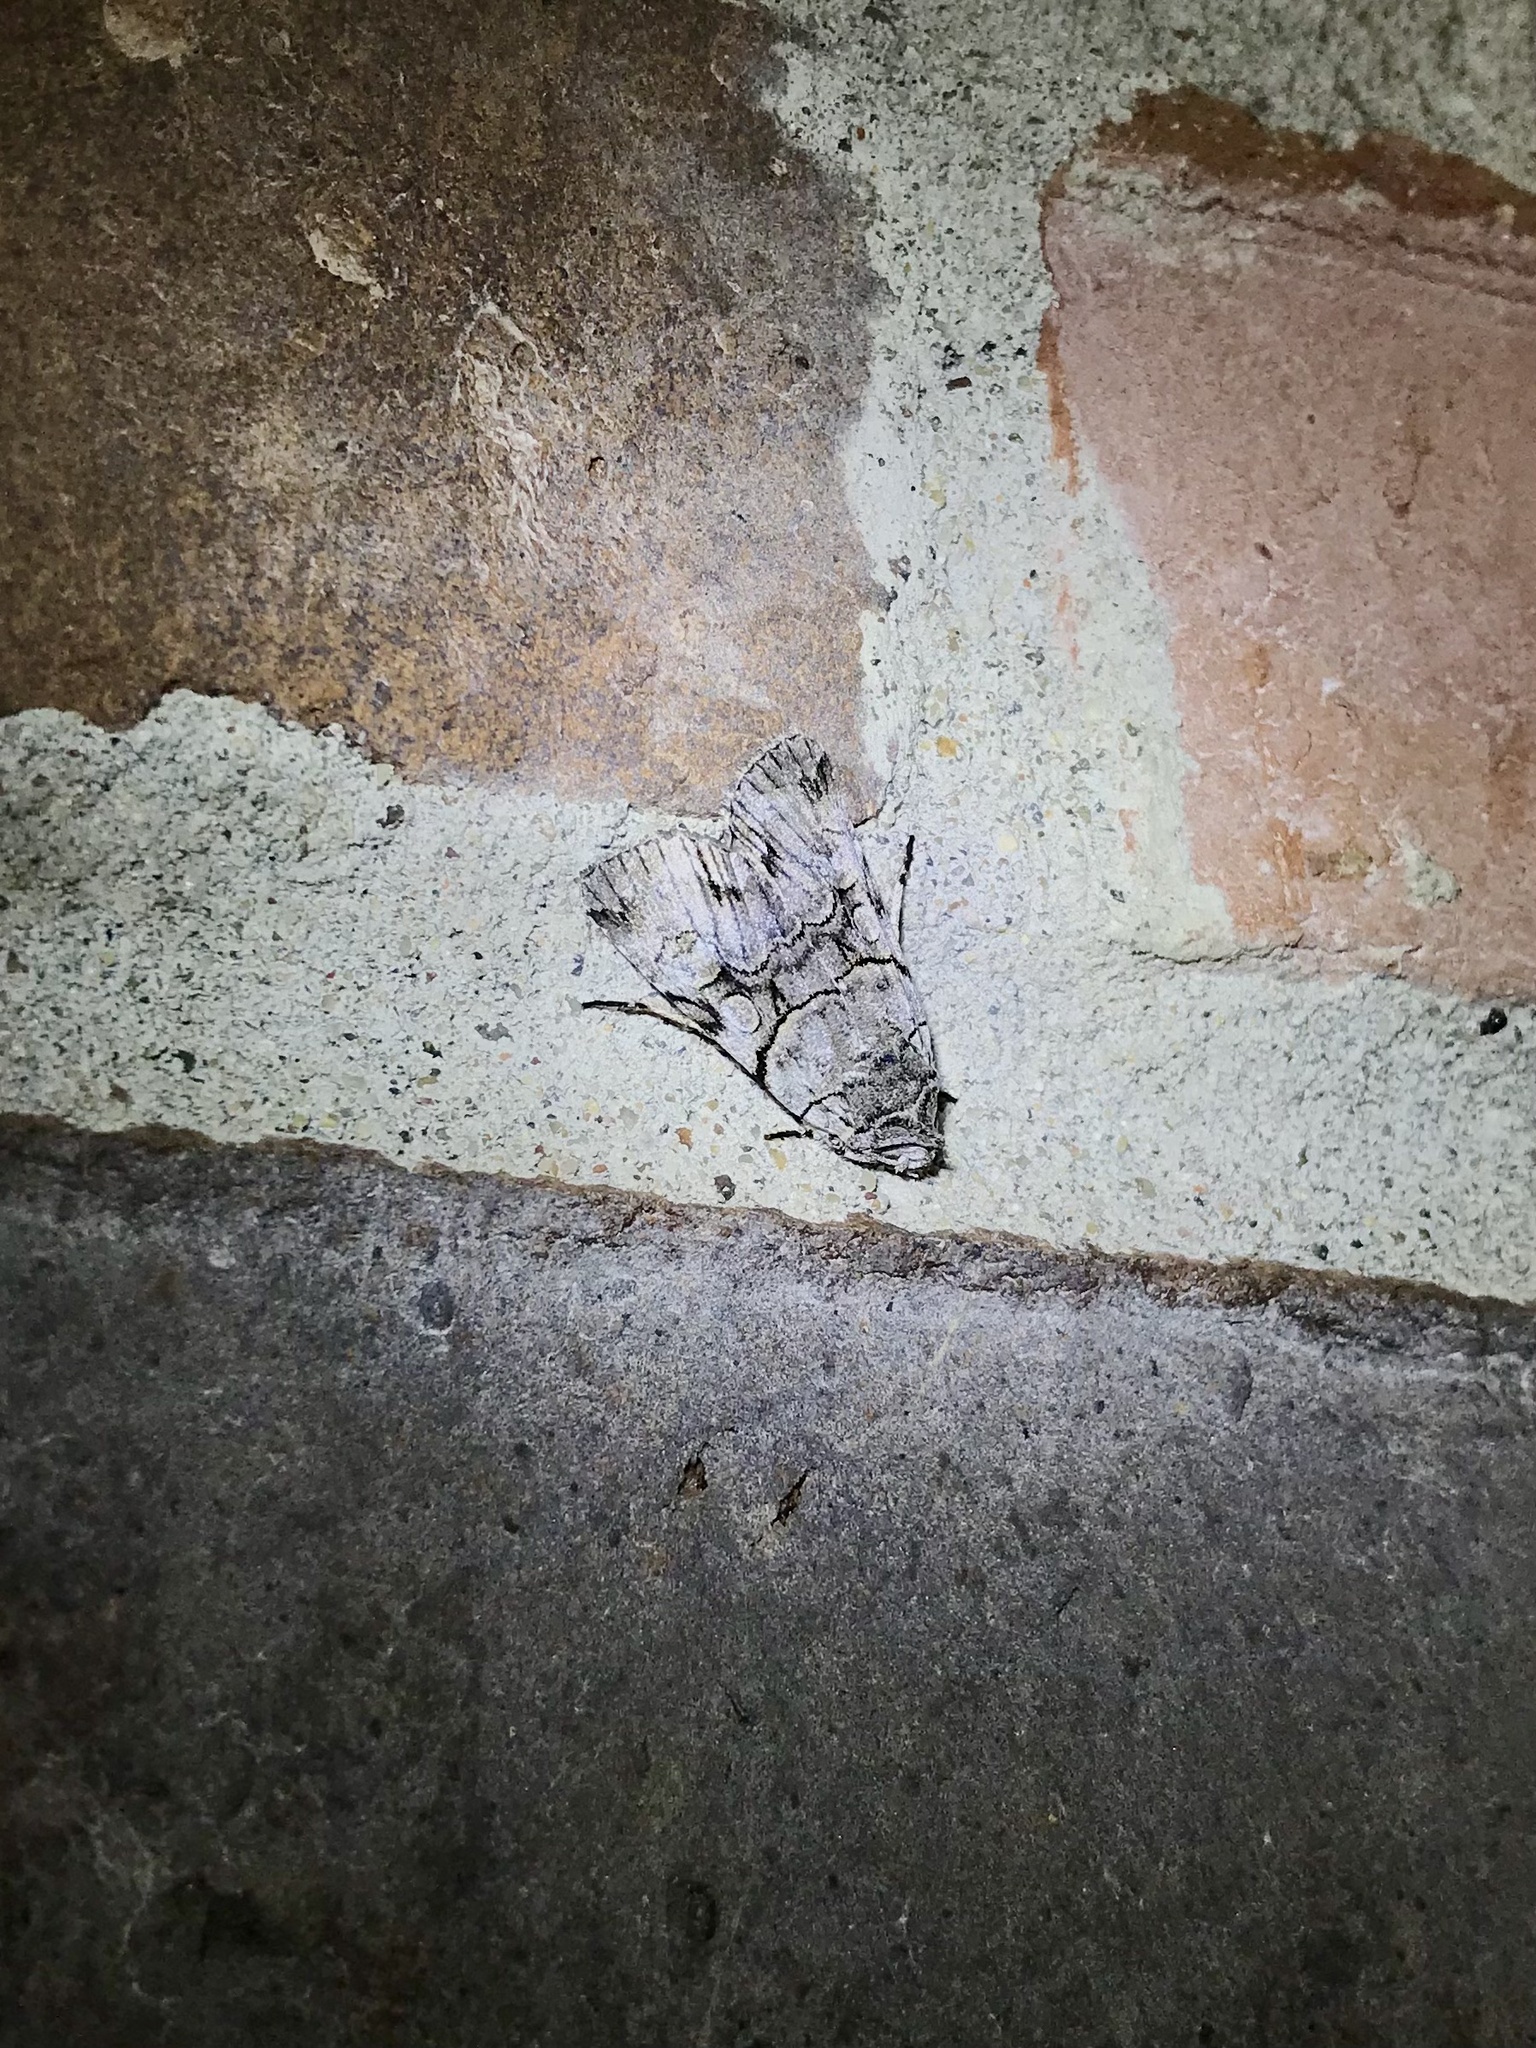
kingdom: Animalia
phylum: Arthropoda
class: Insecta
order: Lepidoptera
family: Noctuidae
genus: Sympistis
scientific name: Sympistis chionanthi
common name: Fringe-tree sallow
